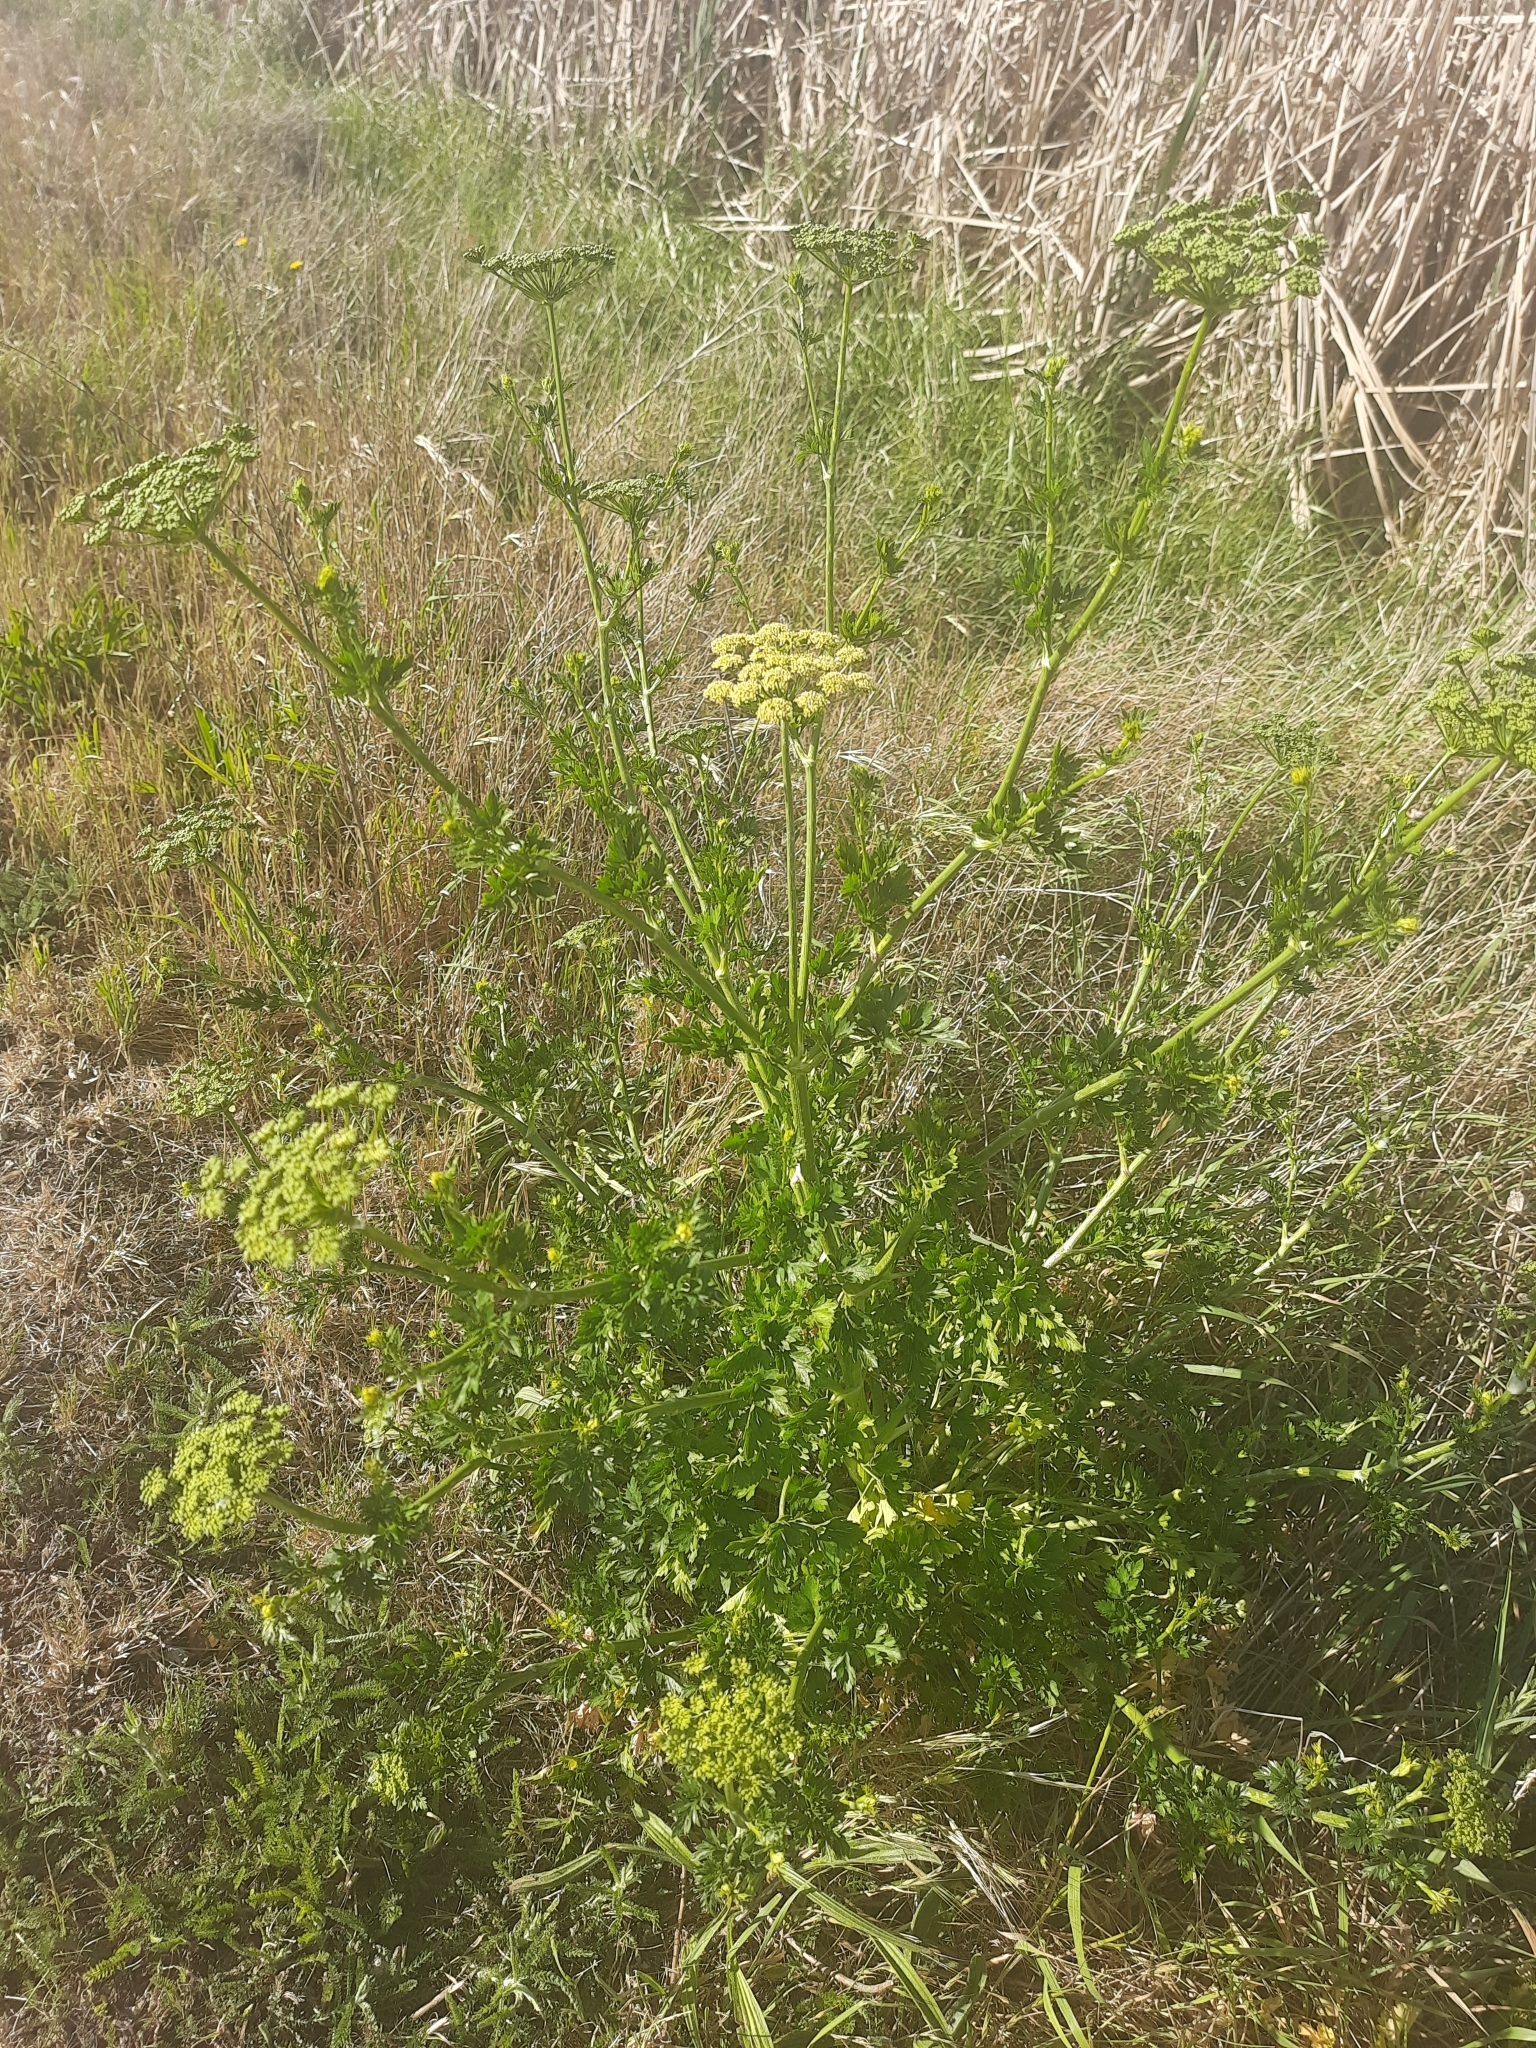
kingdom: Plantae
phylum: Tracheophyta
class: Magnoliopsida
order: Apiales
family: Apiaceae
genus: Petroselinum
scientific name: Petroselinum crispum
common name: Parsley
